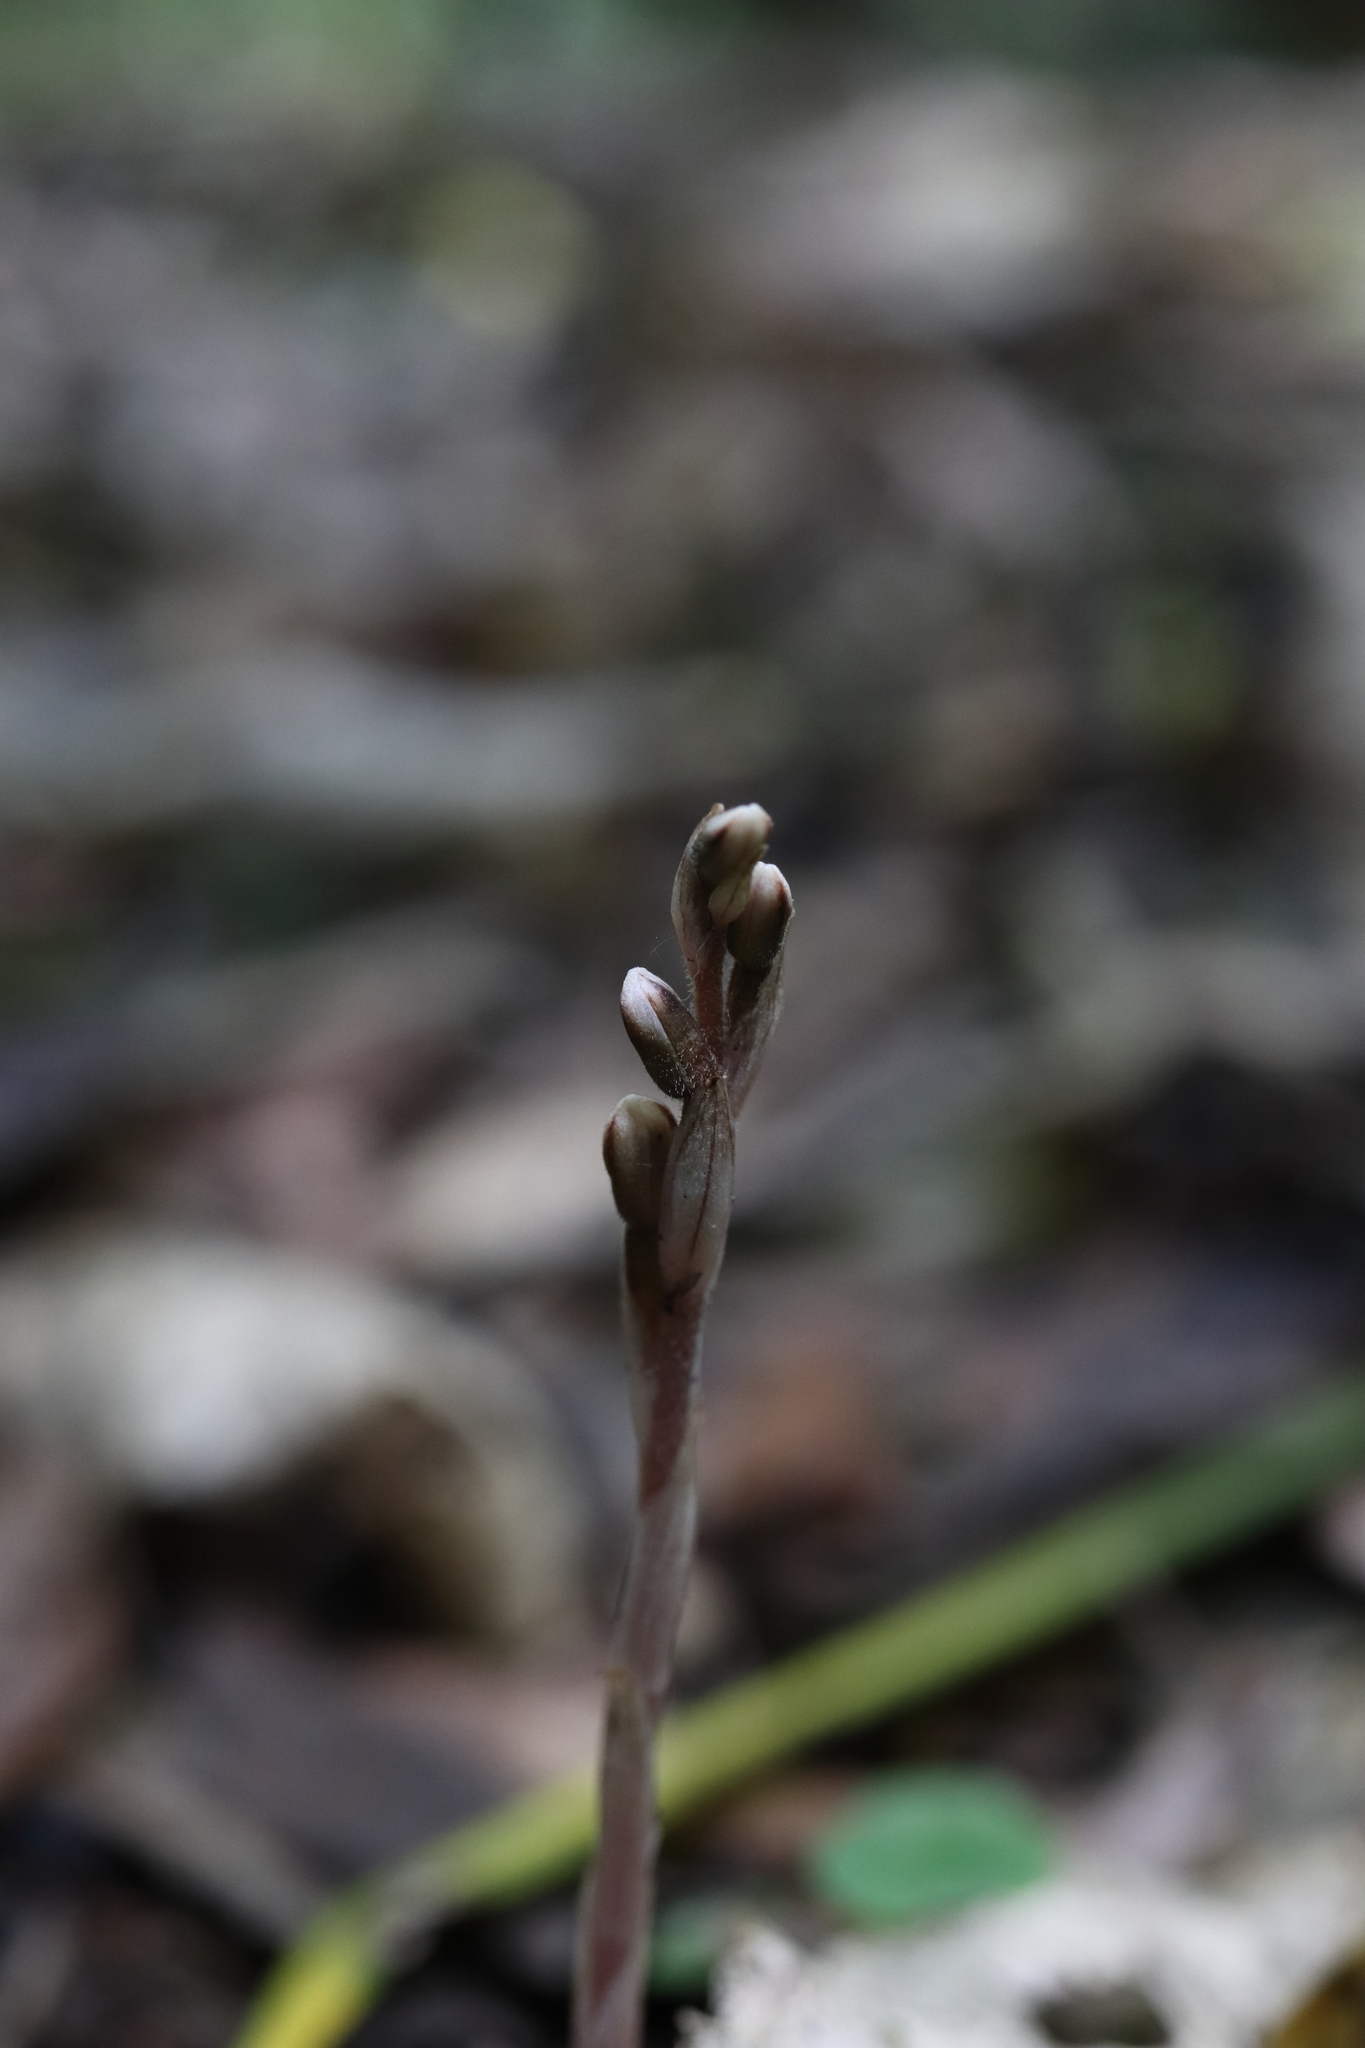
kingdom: Plantae
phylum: Tracheophyta
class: Liliopsida
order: Asparagales
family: Orchidaceae
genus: Danhatchia
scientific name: Danhatchia australis
